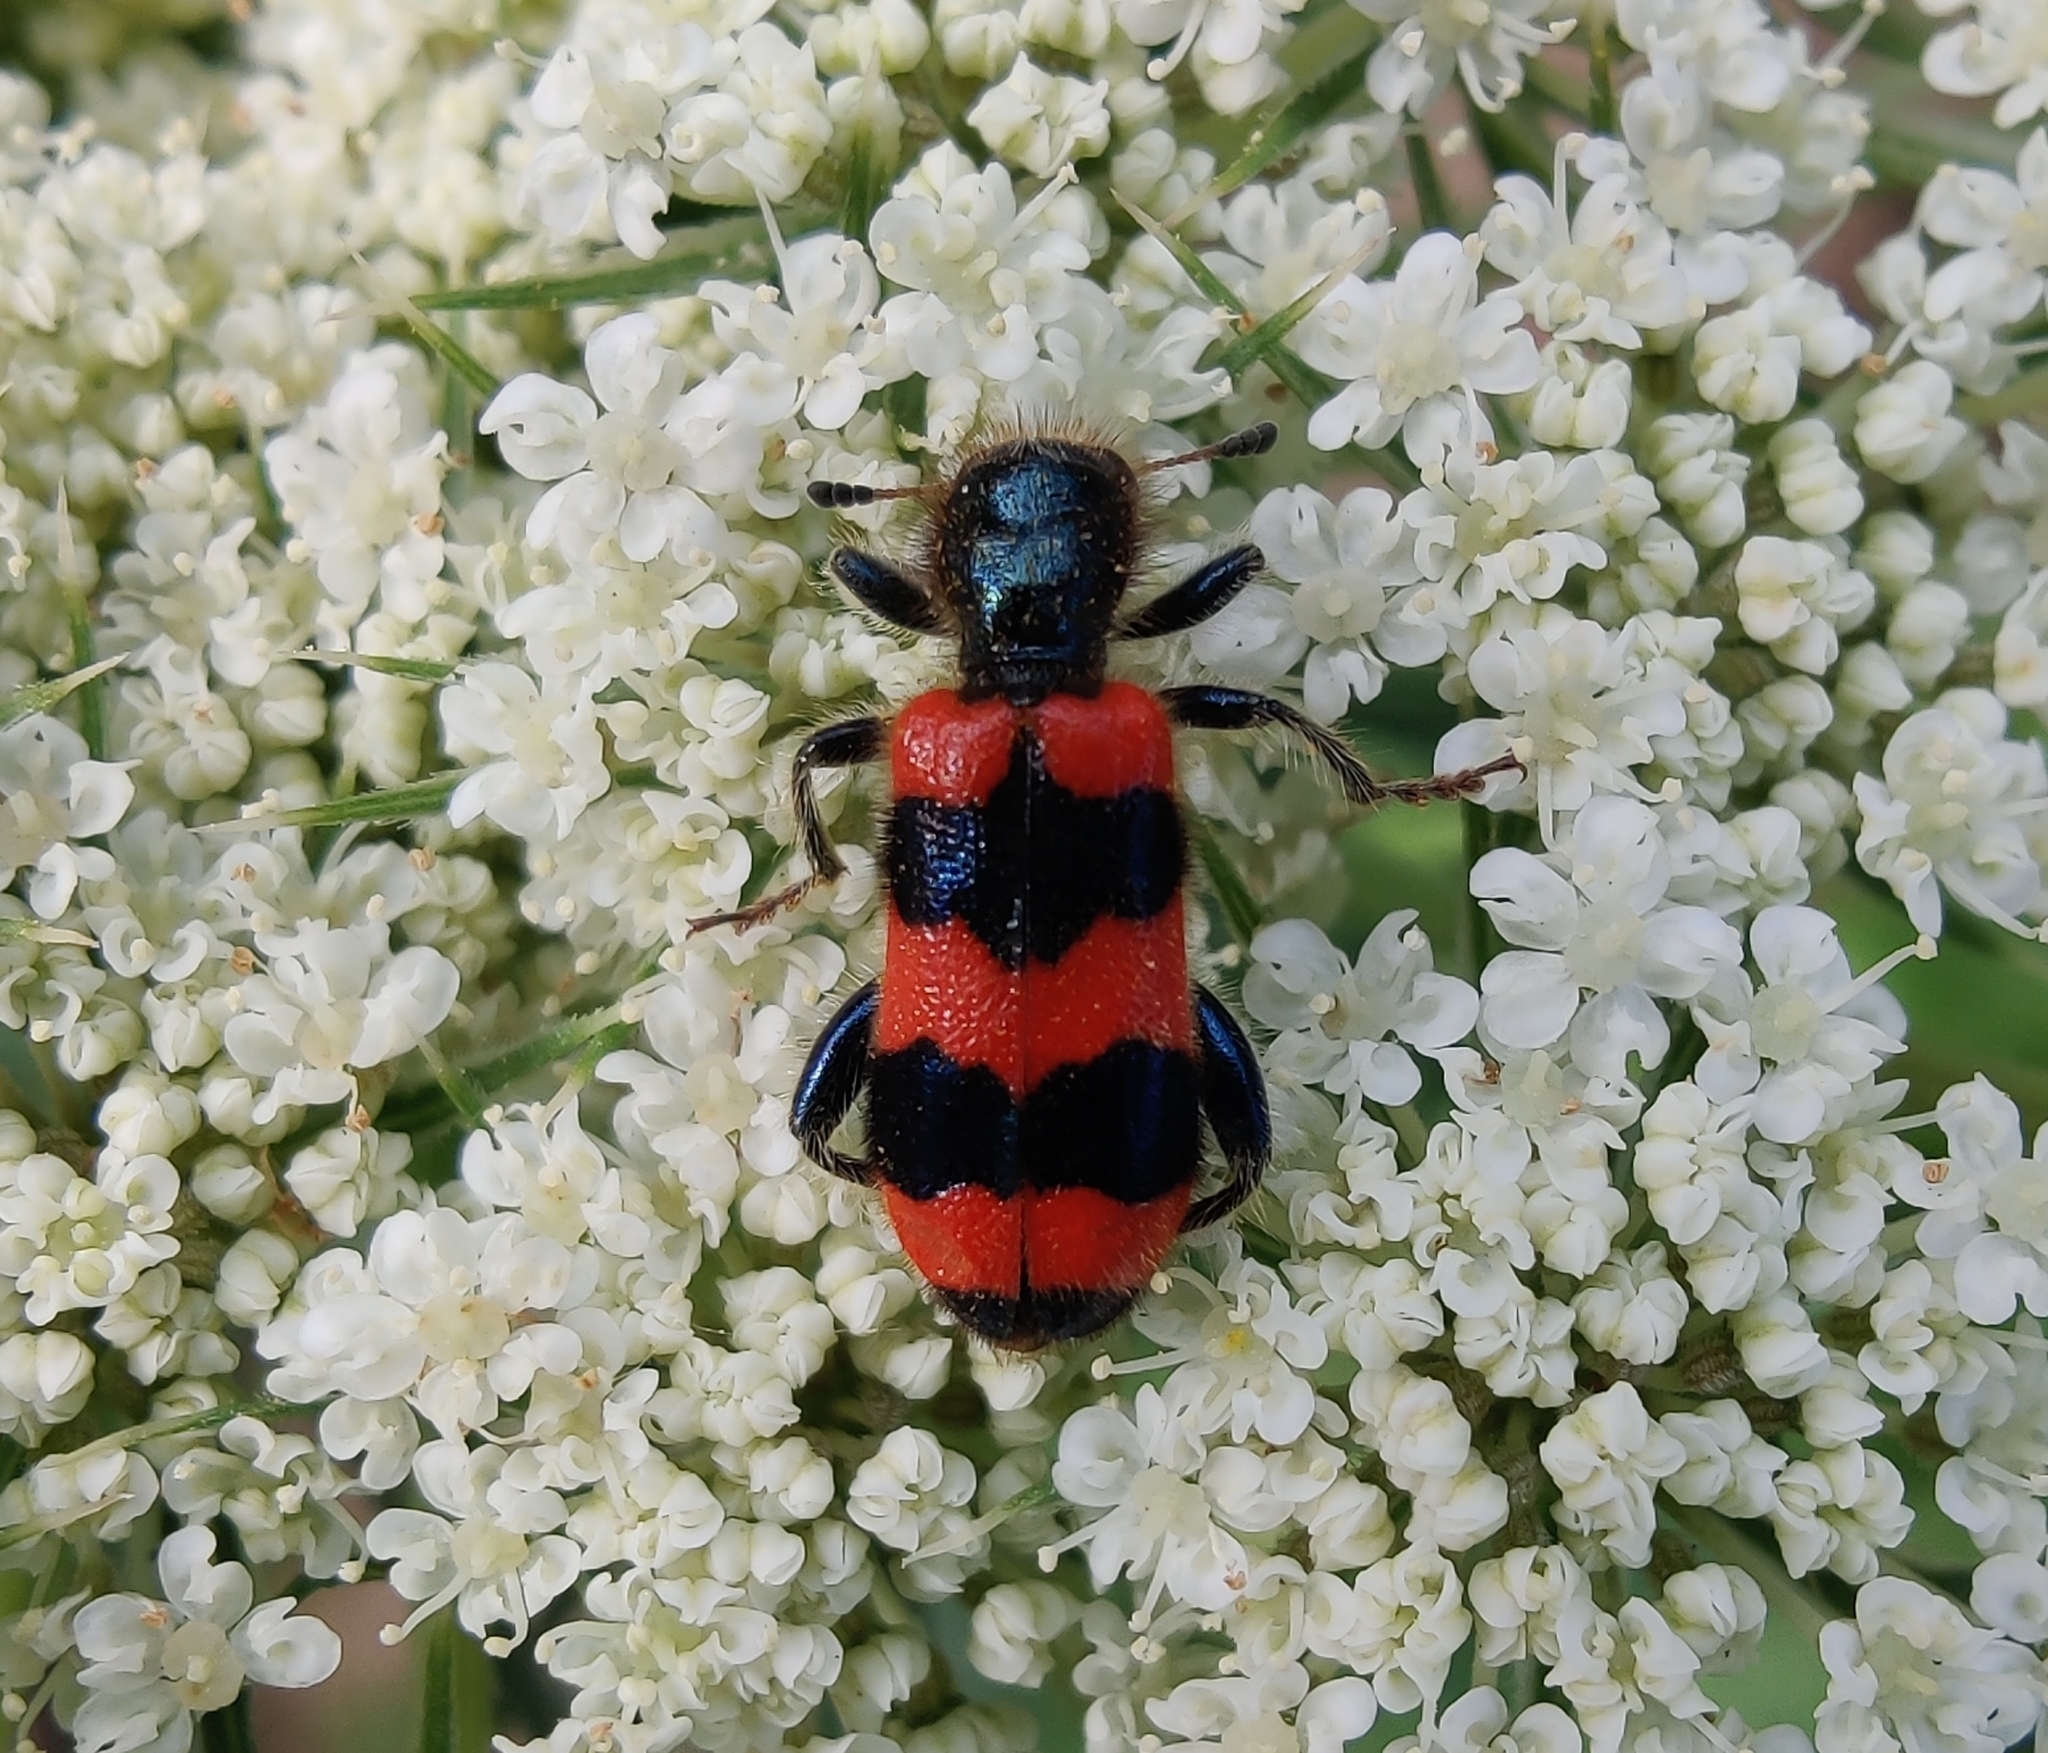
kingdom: Animalia
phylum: Arthropoda
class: Insecta
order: Coleoptera
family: Cleridae
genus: Trichodes
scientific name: Trichodes apiarius
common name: Bee-eating beetle
